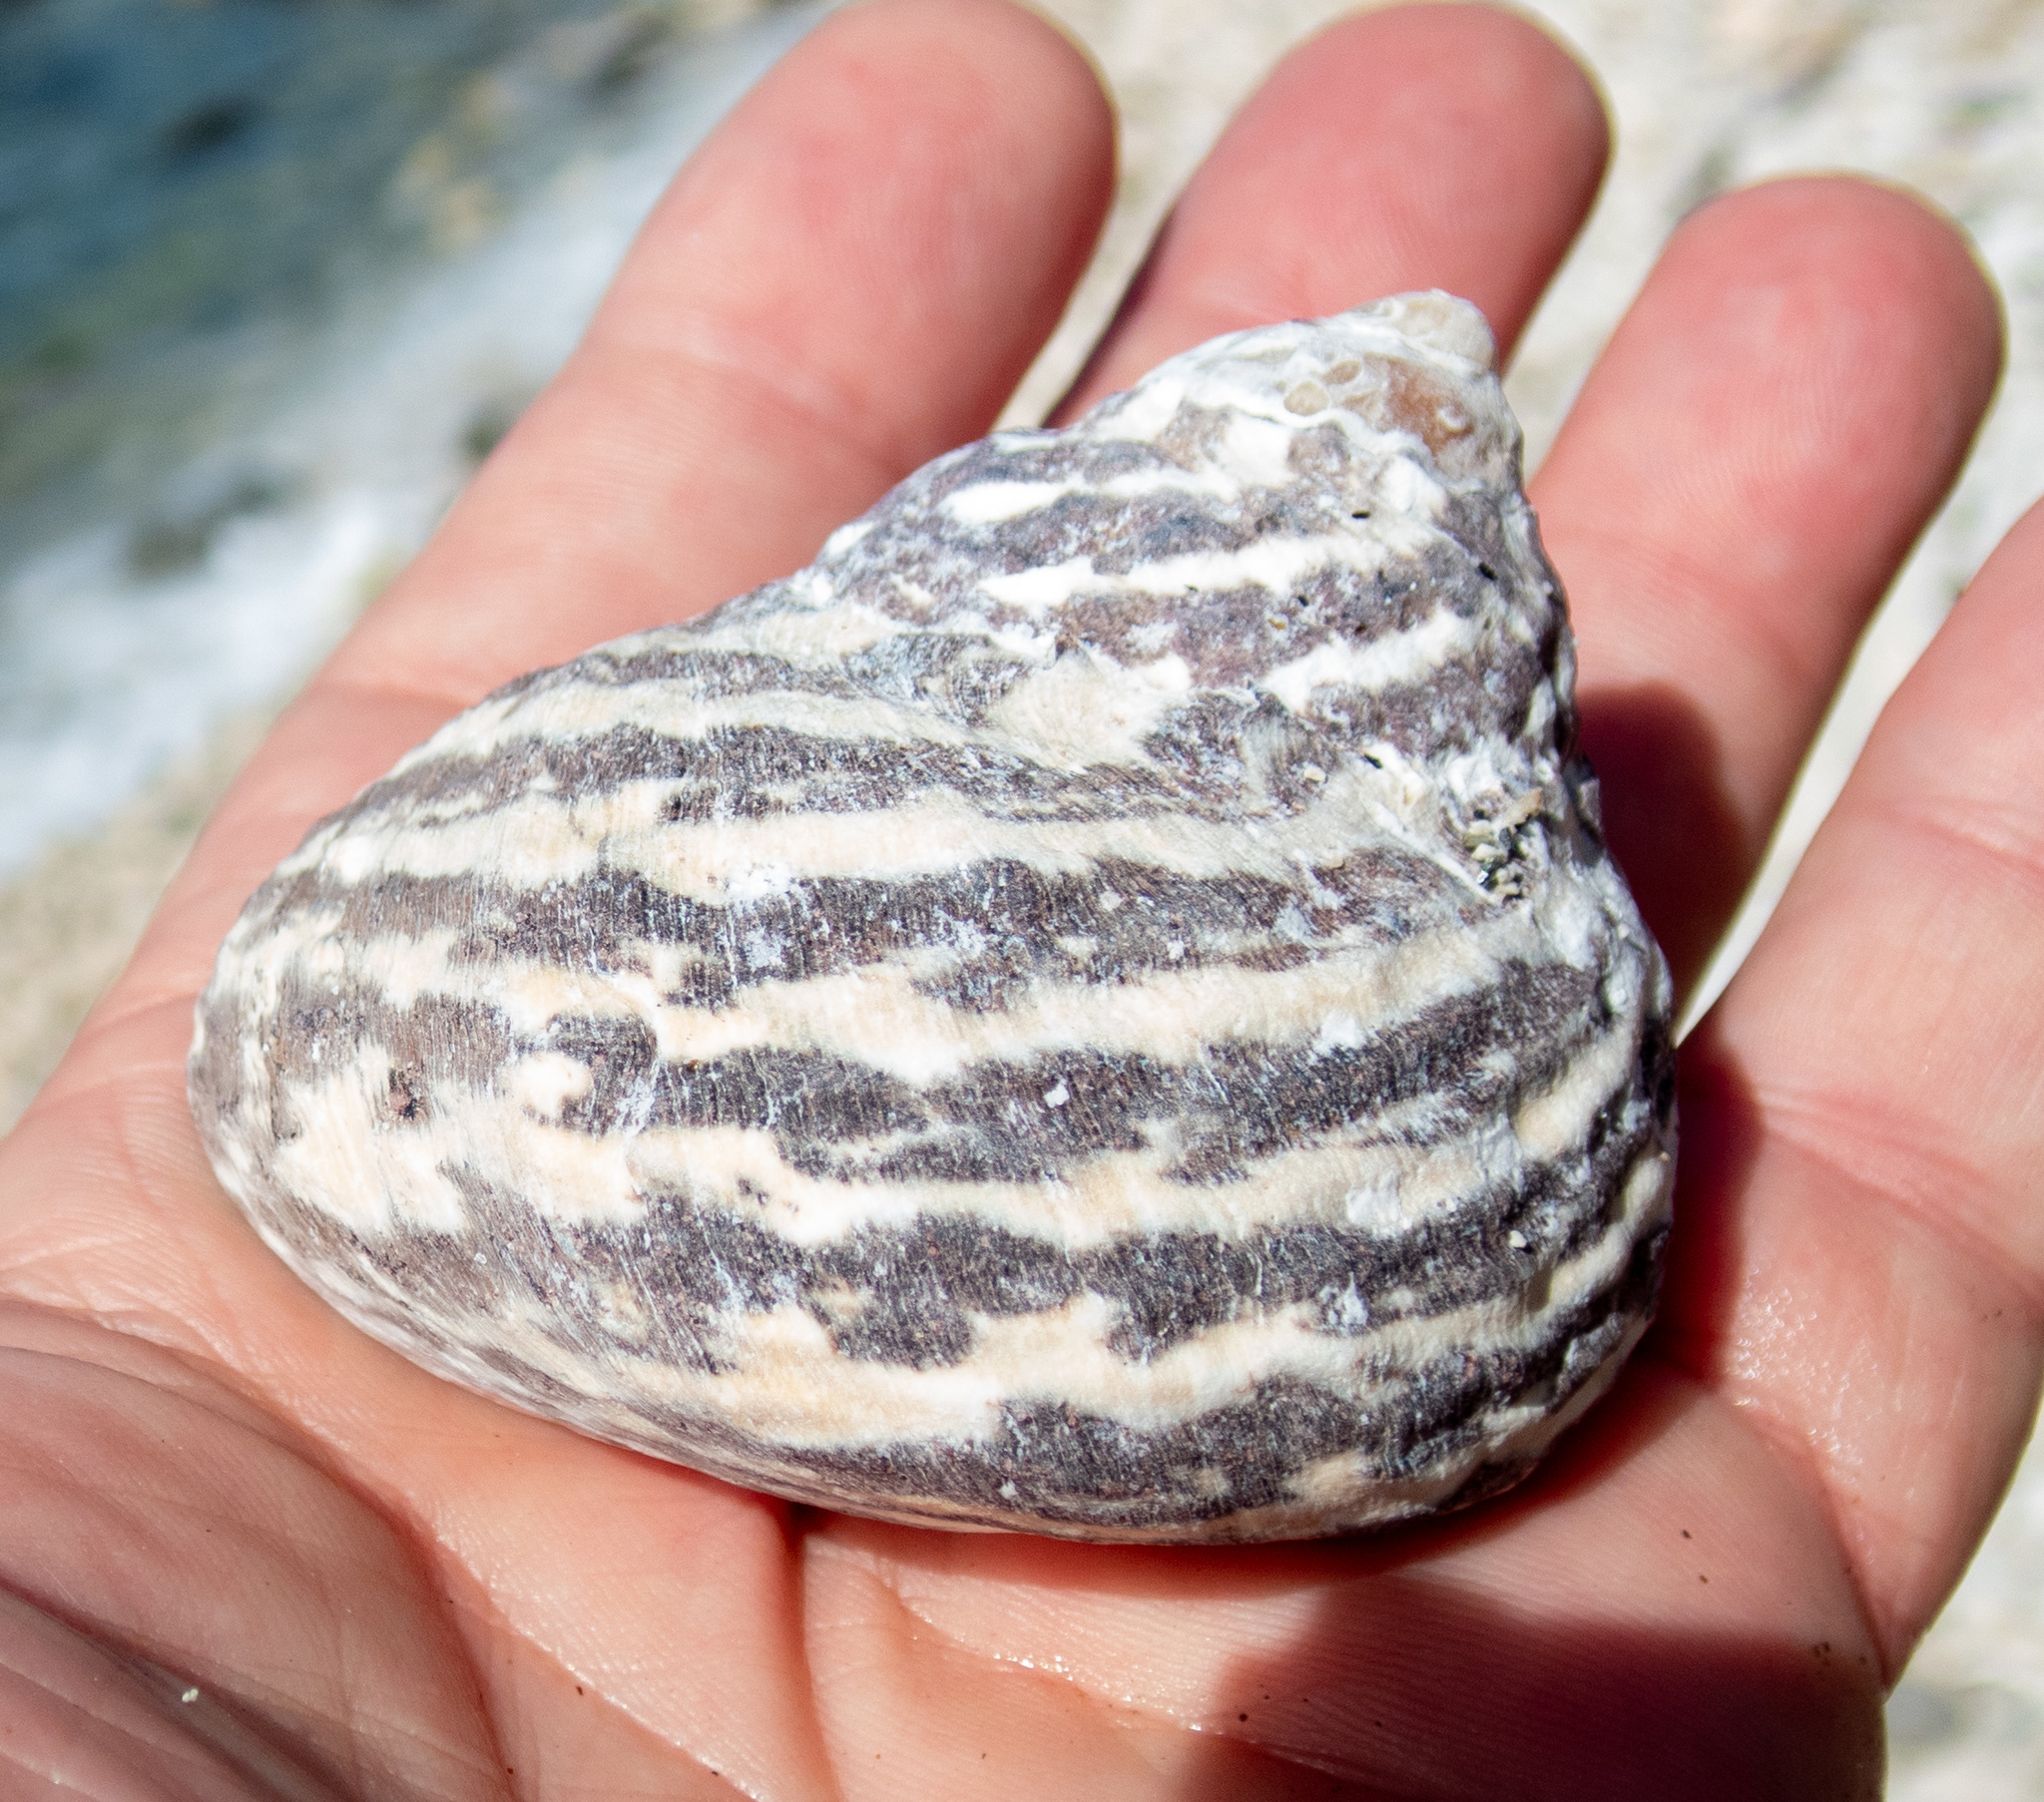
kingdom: Animalia
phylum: Mollusca
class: Gastropoda
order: Trochida
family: Tegulidae
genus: Cittarium
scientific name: Cittarium pica
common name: West indian topshell
